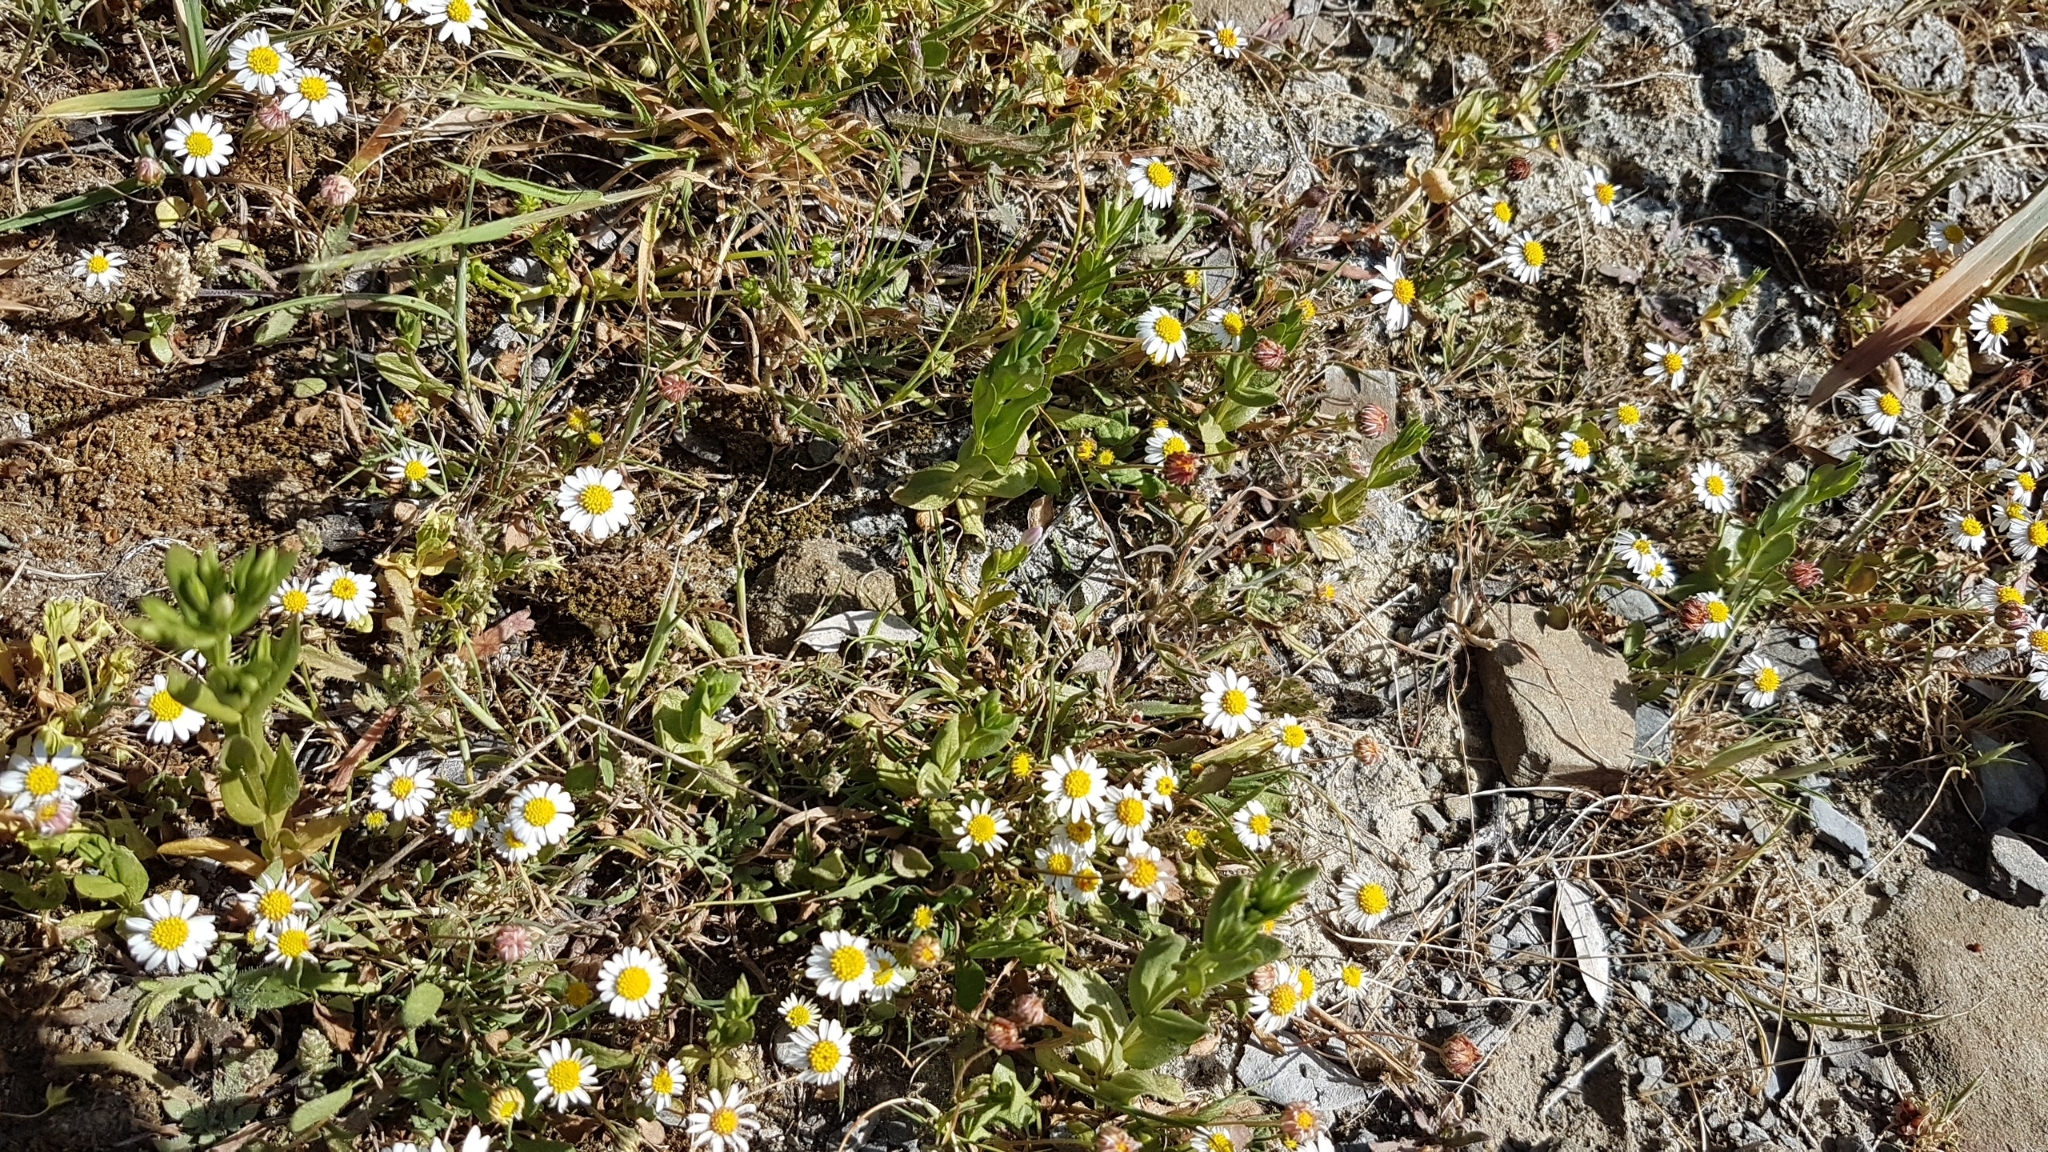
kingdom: Plantae
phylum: Tracheophyta
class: Magnoliopsida
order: Asterales
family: Asteraceae
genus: Bellium
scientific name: Bellium bellidioides
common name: False daisy
